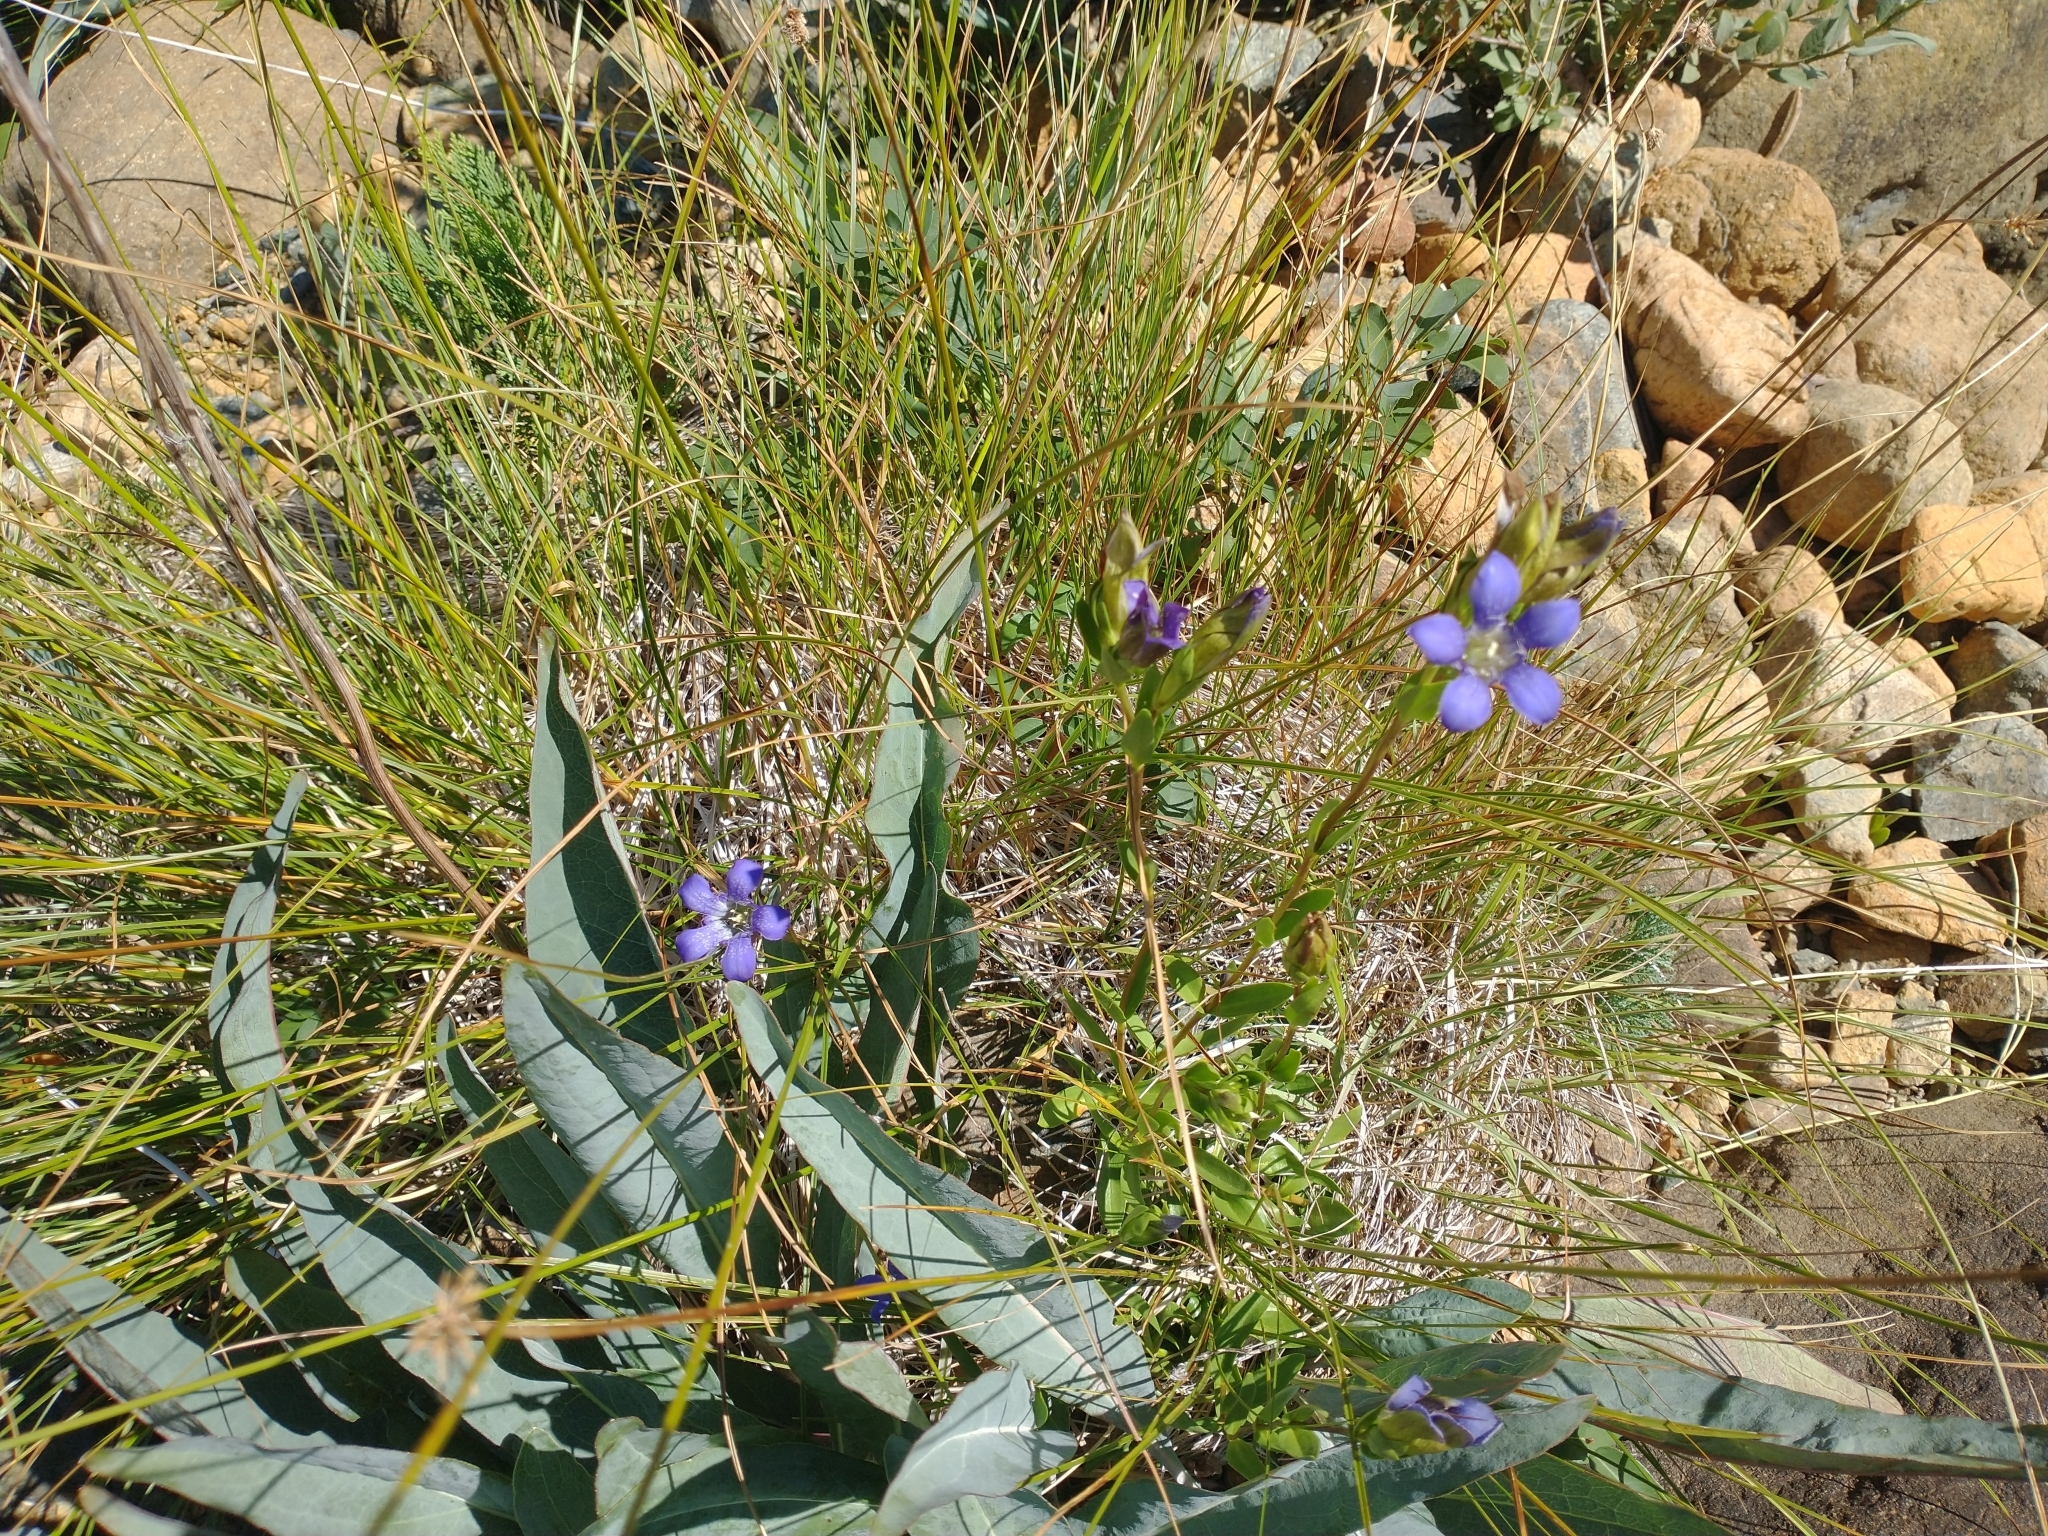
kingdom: Plantae
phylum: Tracheophyta
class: Magnoliopsida
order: Gentianales
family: Gentianaceae
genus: Gentiana
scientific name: Gentiana setigera
